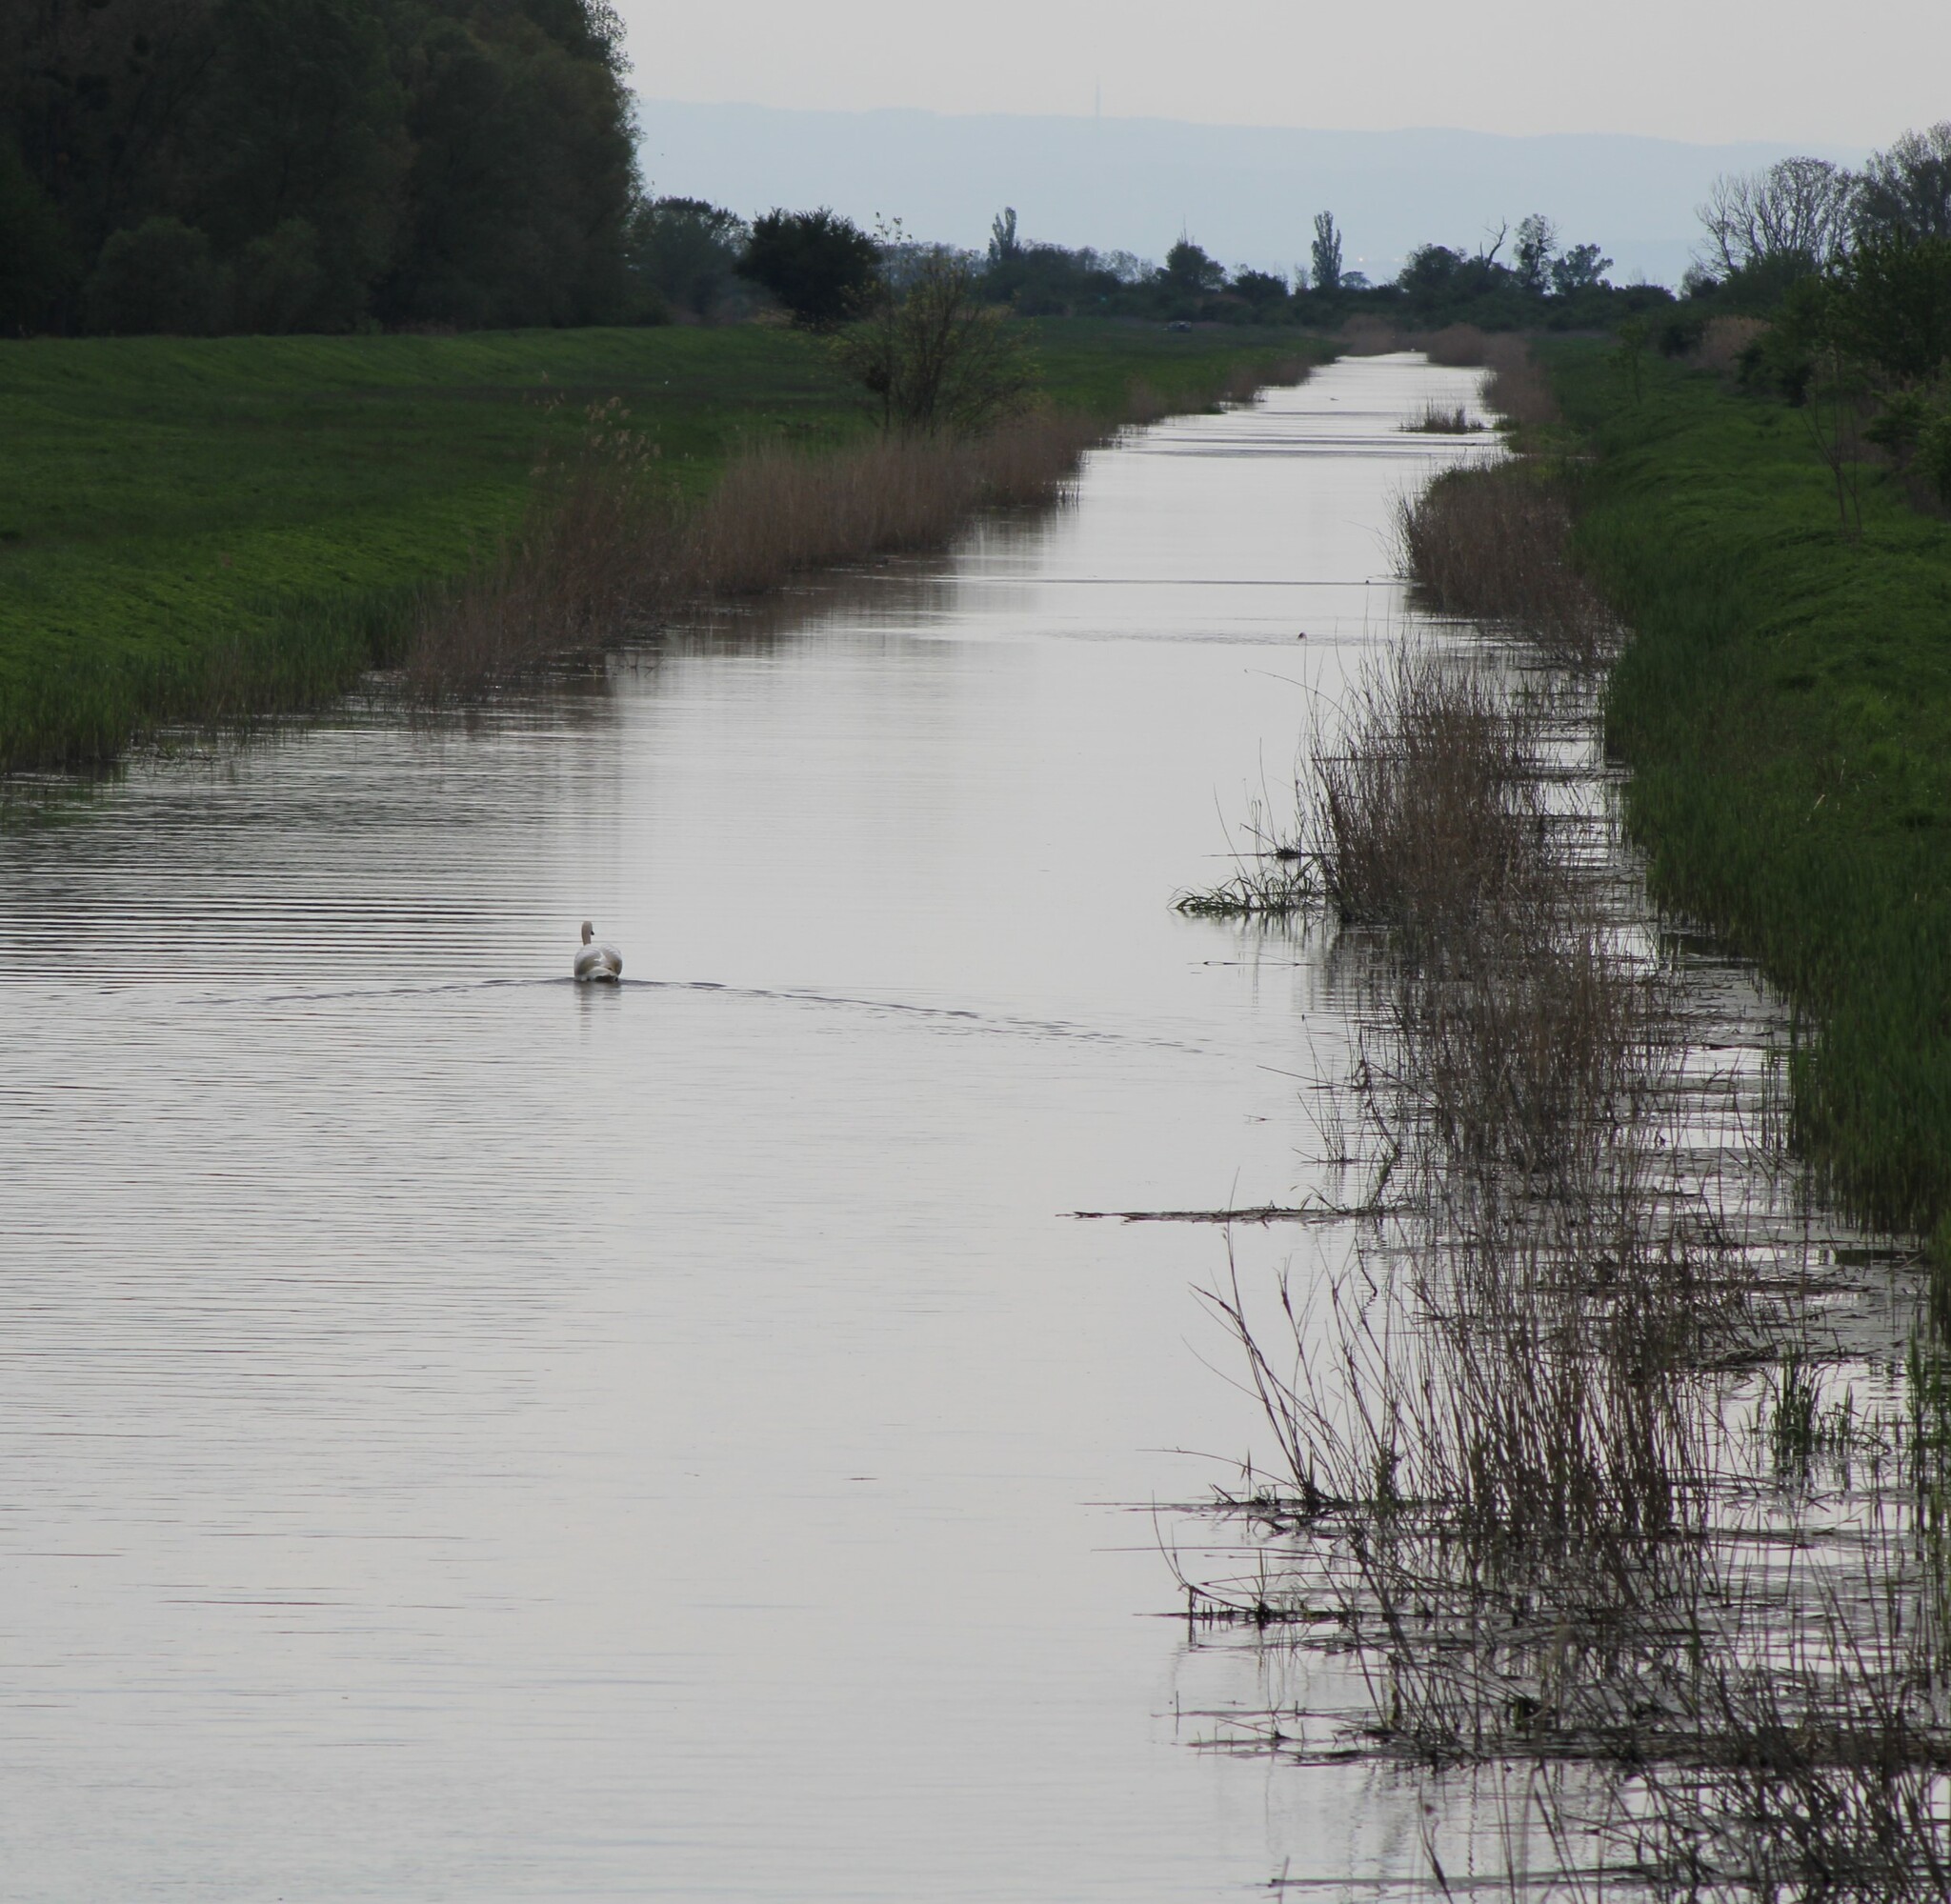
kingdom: Animalia
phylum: Chordata
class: Aves
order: Anseriformes
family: Anatidae
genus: Cygnus
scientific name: Cygnus olor
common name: Mute swan
